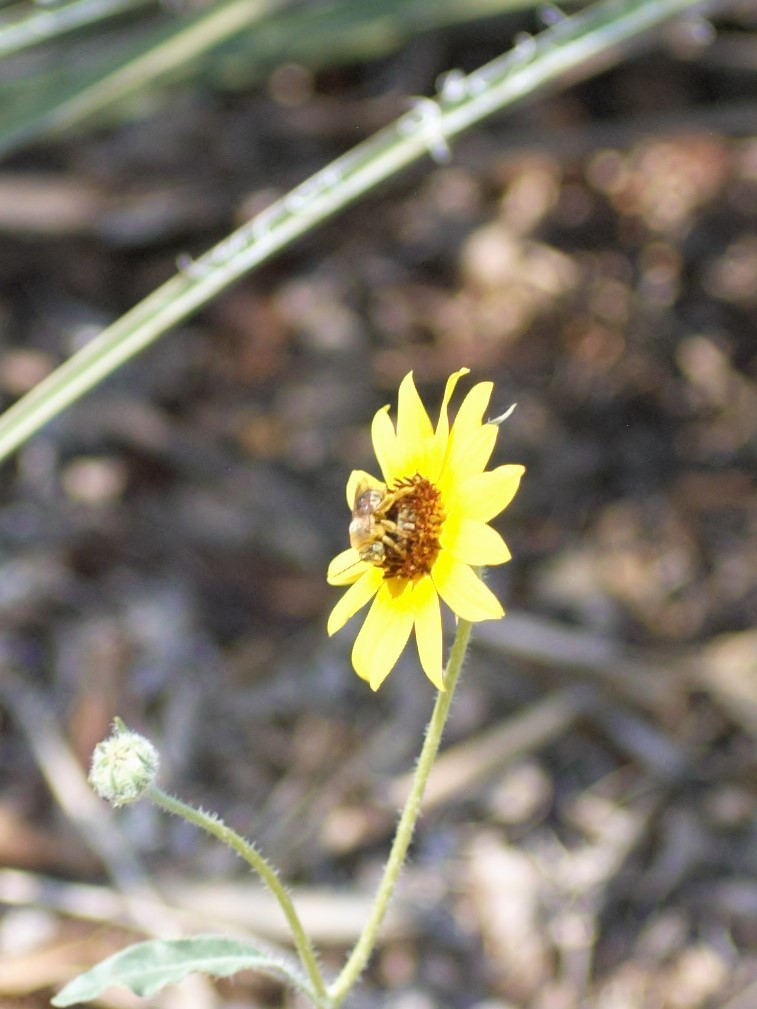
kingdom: Animalia
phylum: Arthropoda
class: Insecta
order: Hymenoptera
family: Apidae
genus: Svastra
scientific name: Svastra obliqua
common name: Oblique longhorn
